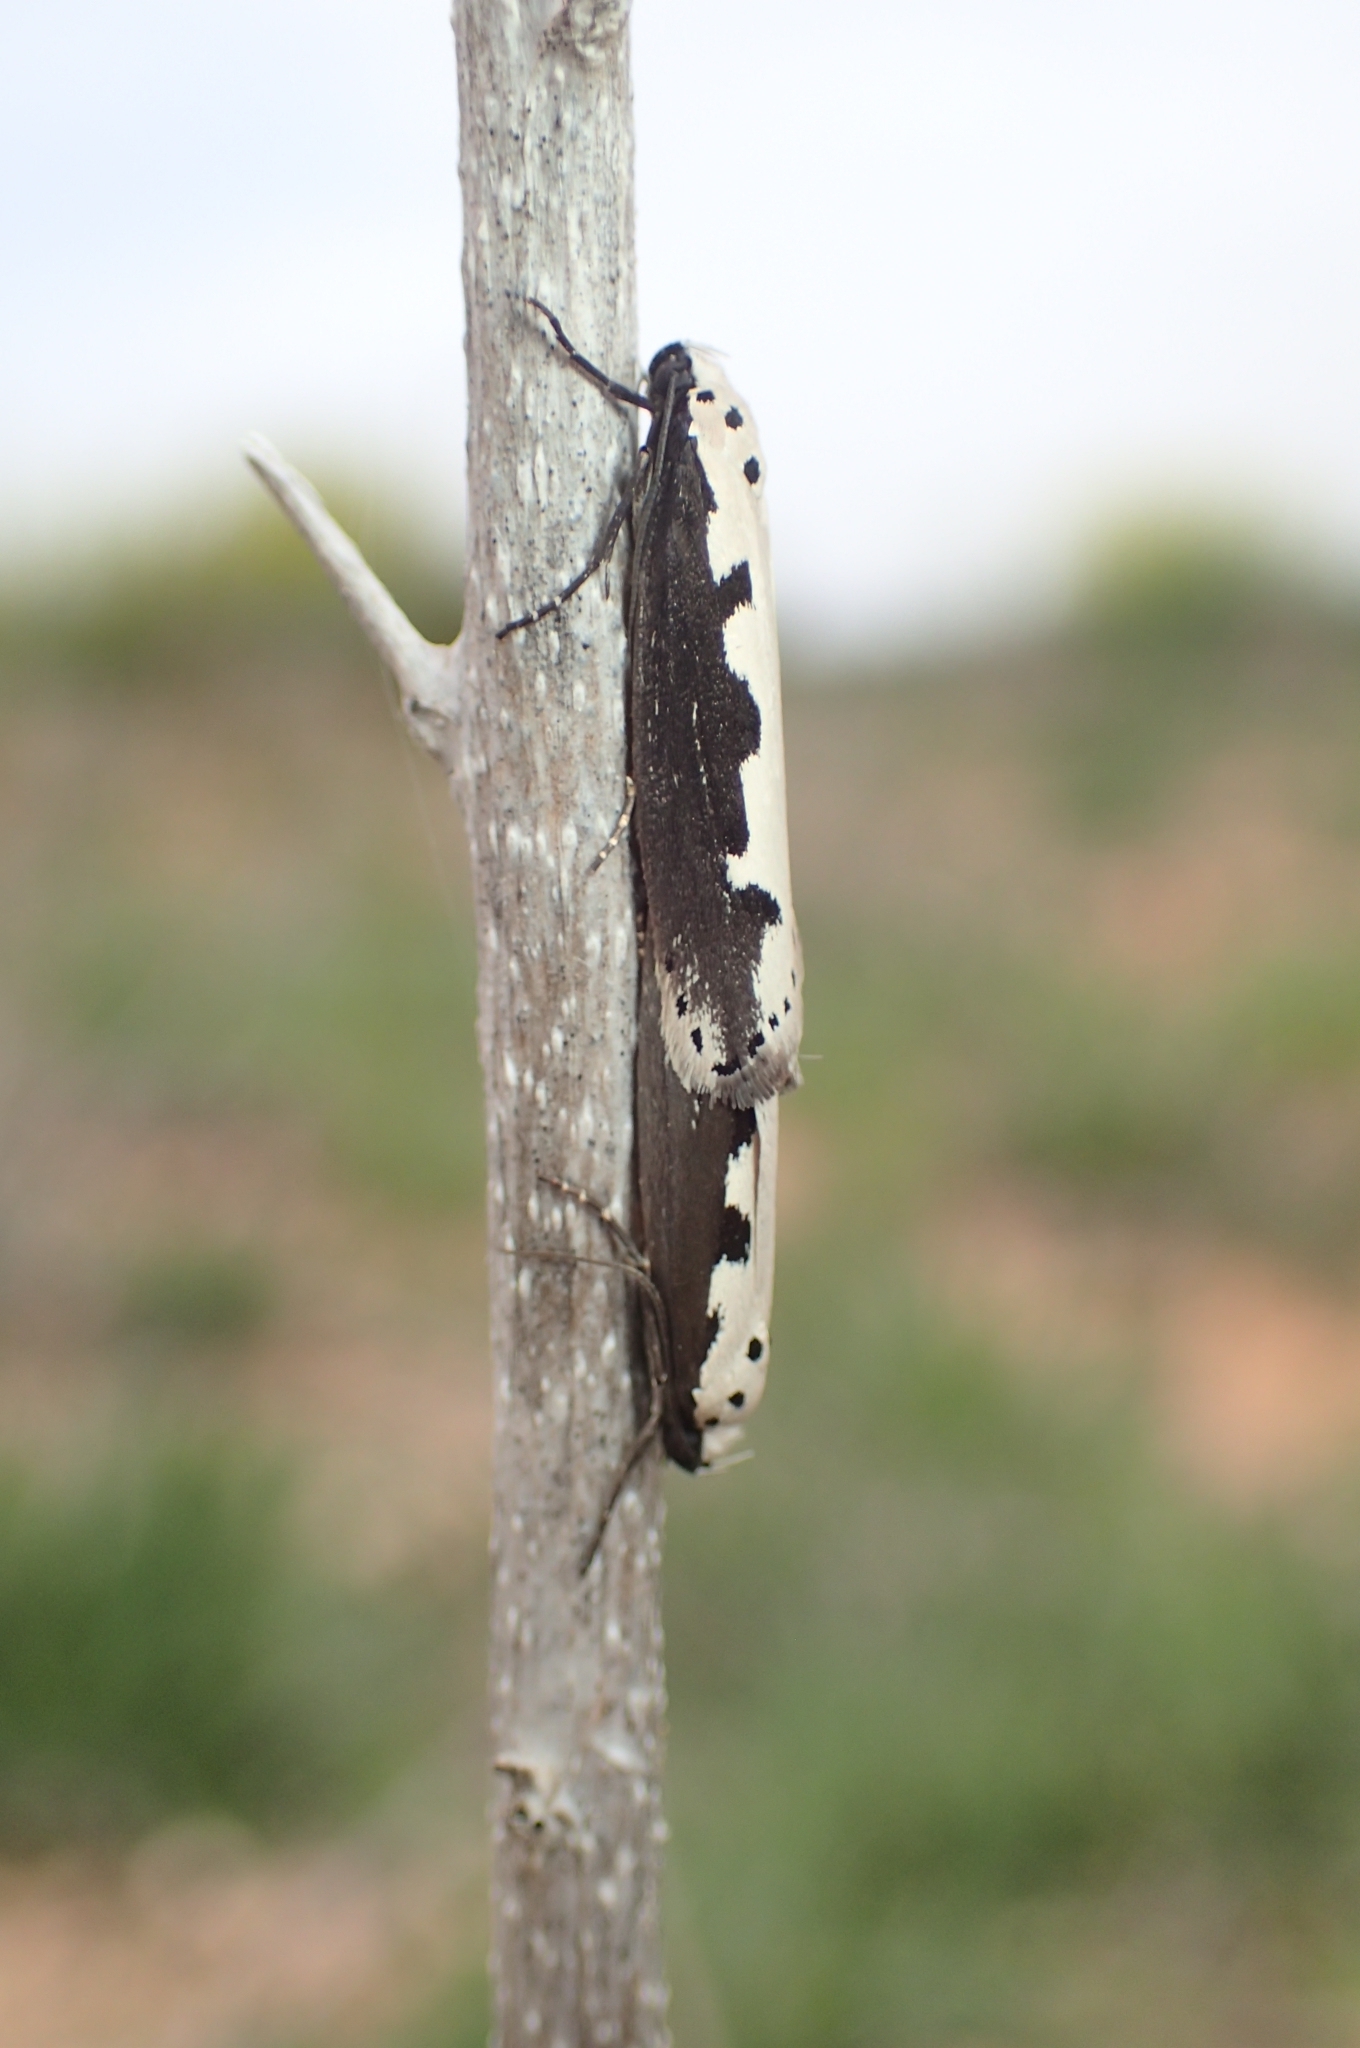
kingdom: Animalia
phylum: Arthropoda
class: Insecta
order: Lepidoptera
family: Ethmiidae
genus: Ethmia
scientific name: Ethmia bipunctella
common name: Bordered ermel
